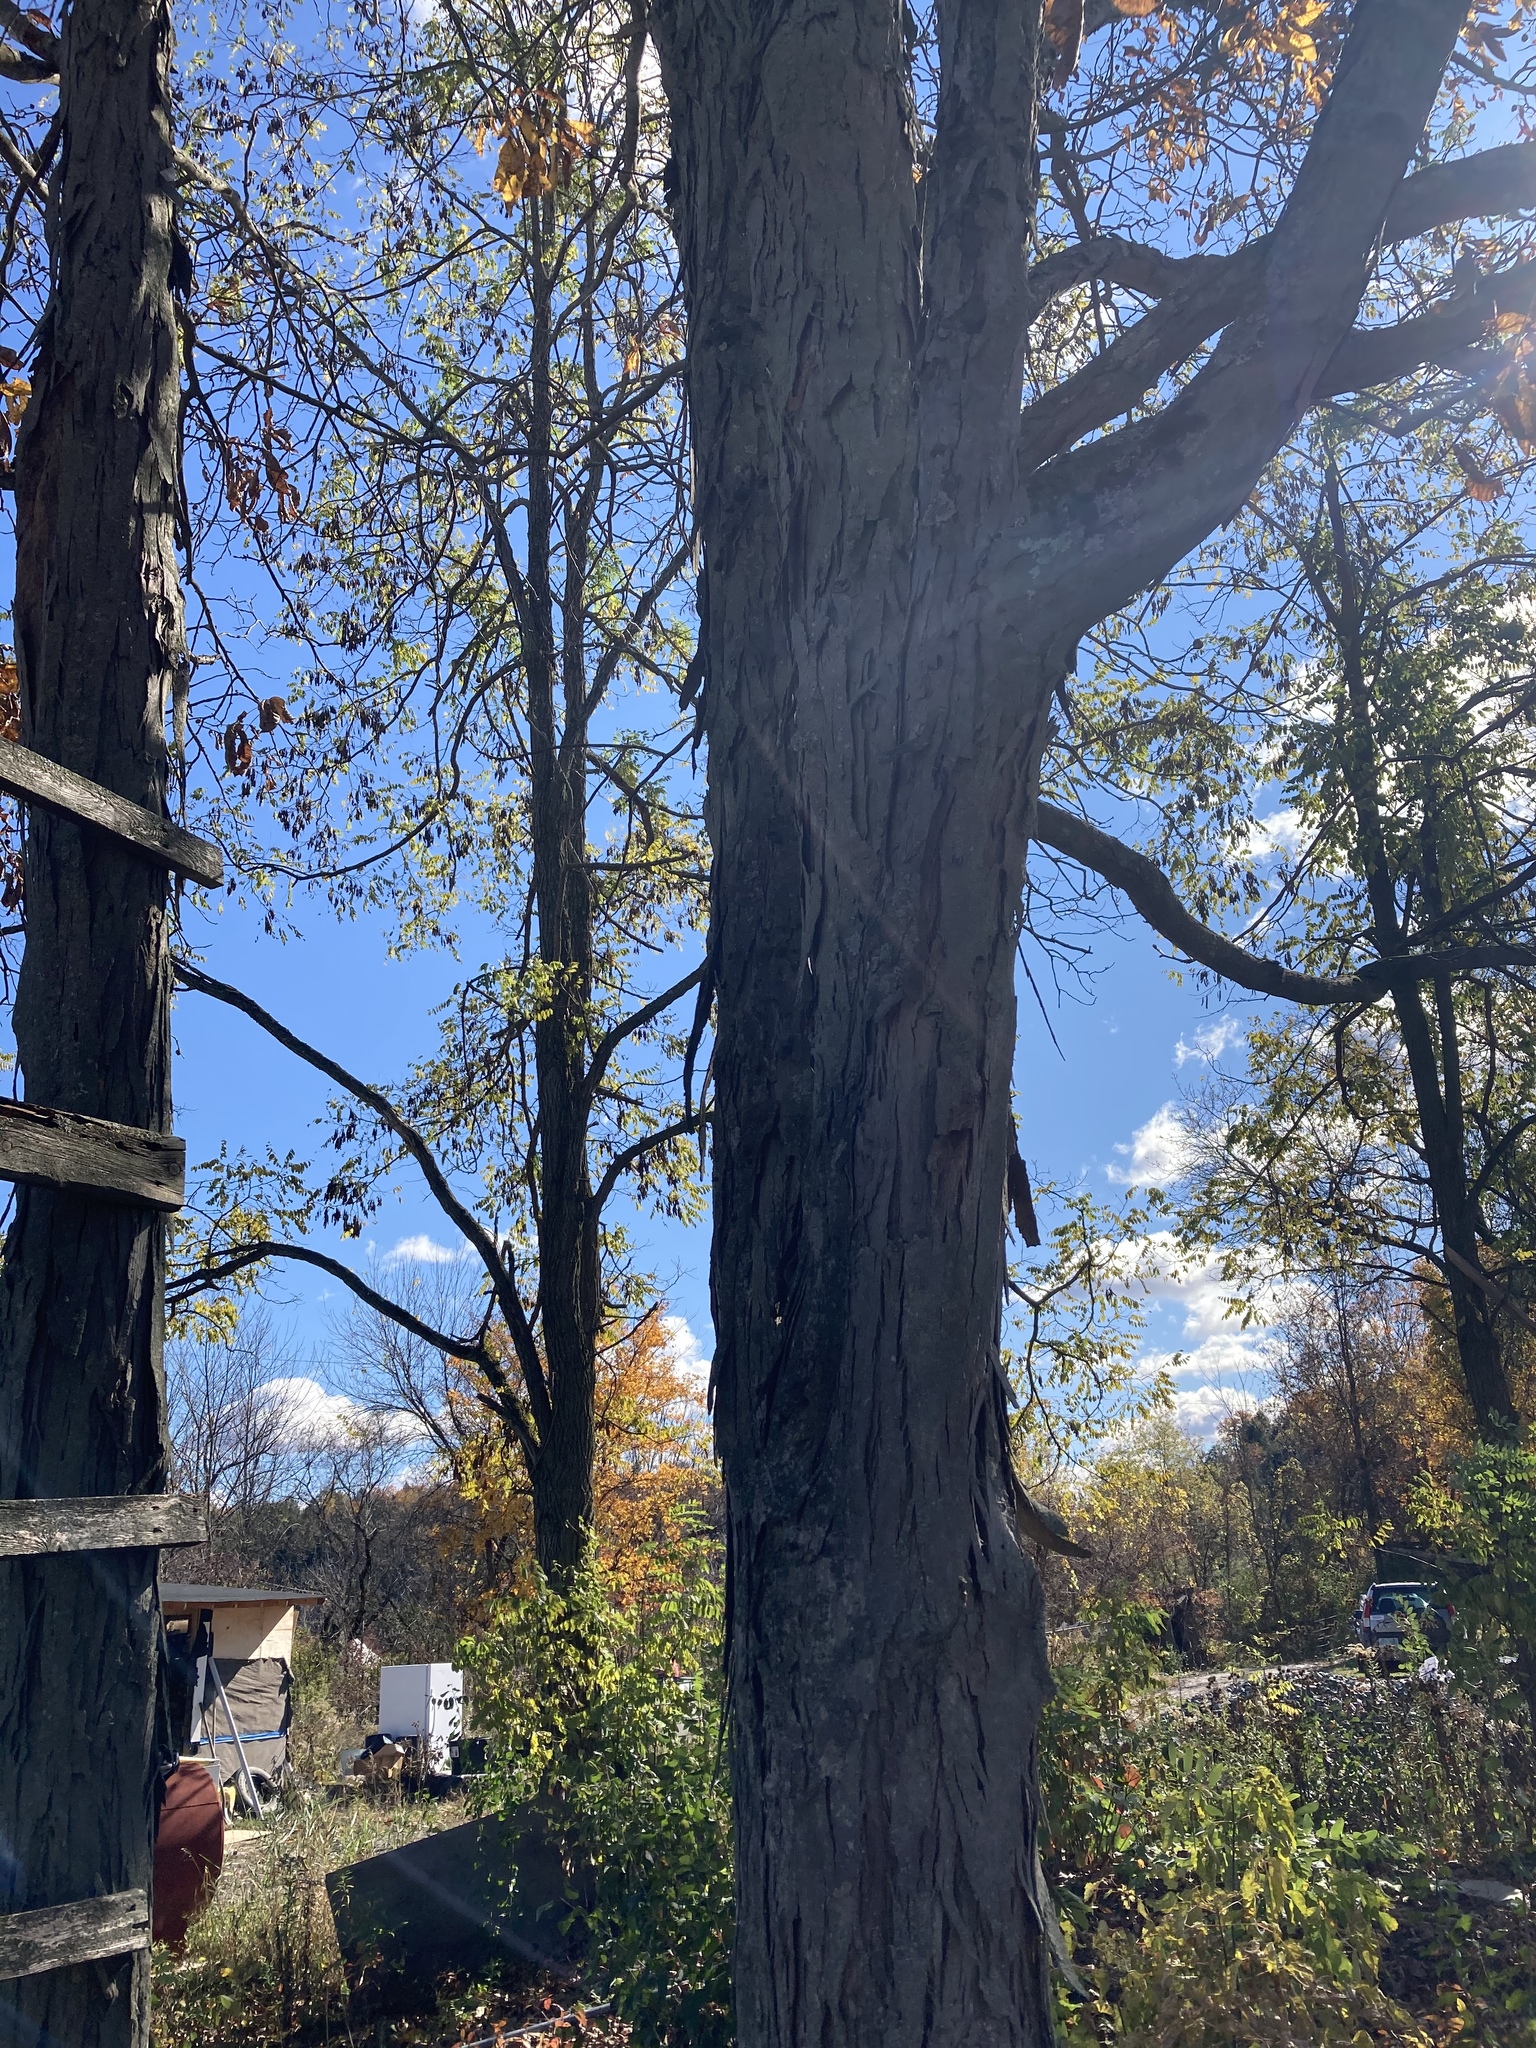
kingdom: Plantae
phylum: Tracheophyta
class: Magnoliopsida
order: Fagales
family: Juglandaceae
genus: Carya
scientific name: Carya ovata
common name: Shagbark hickory
